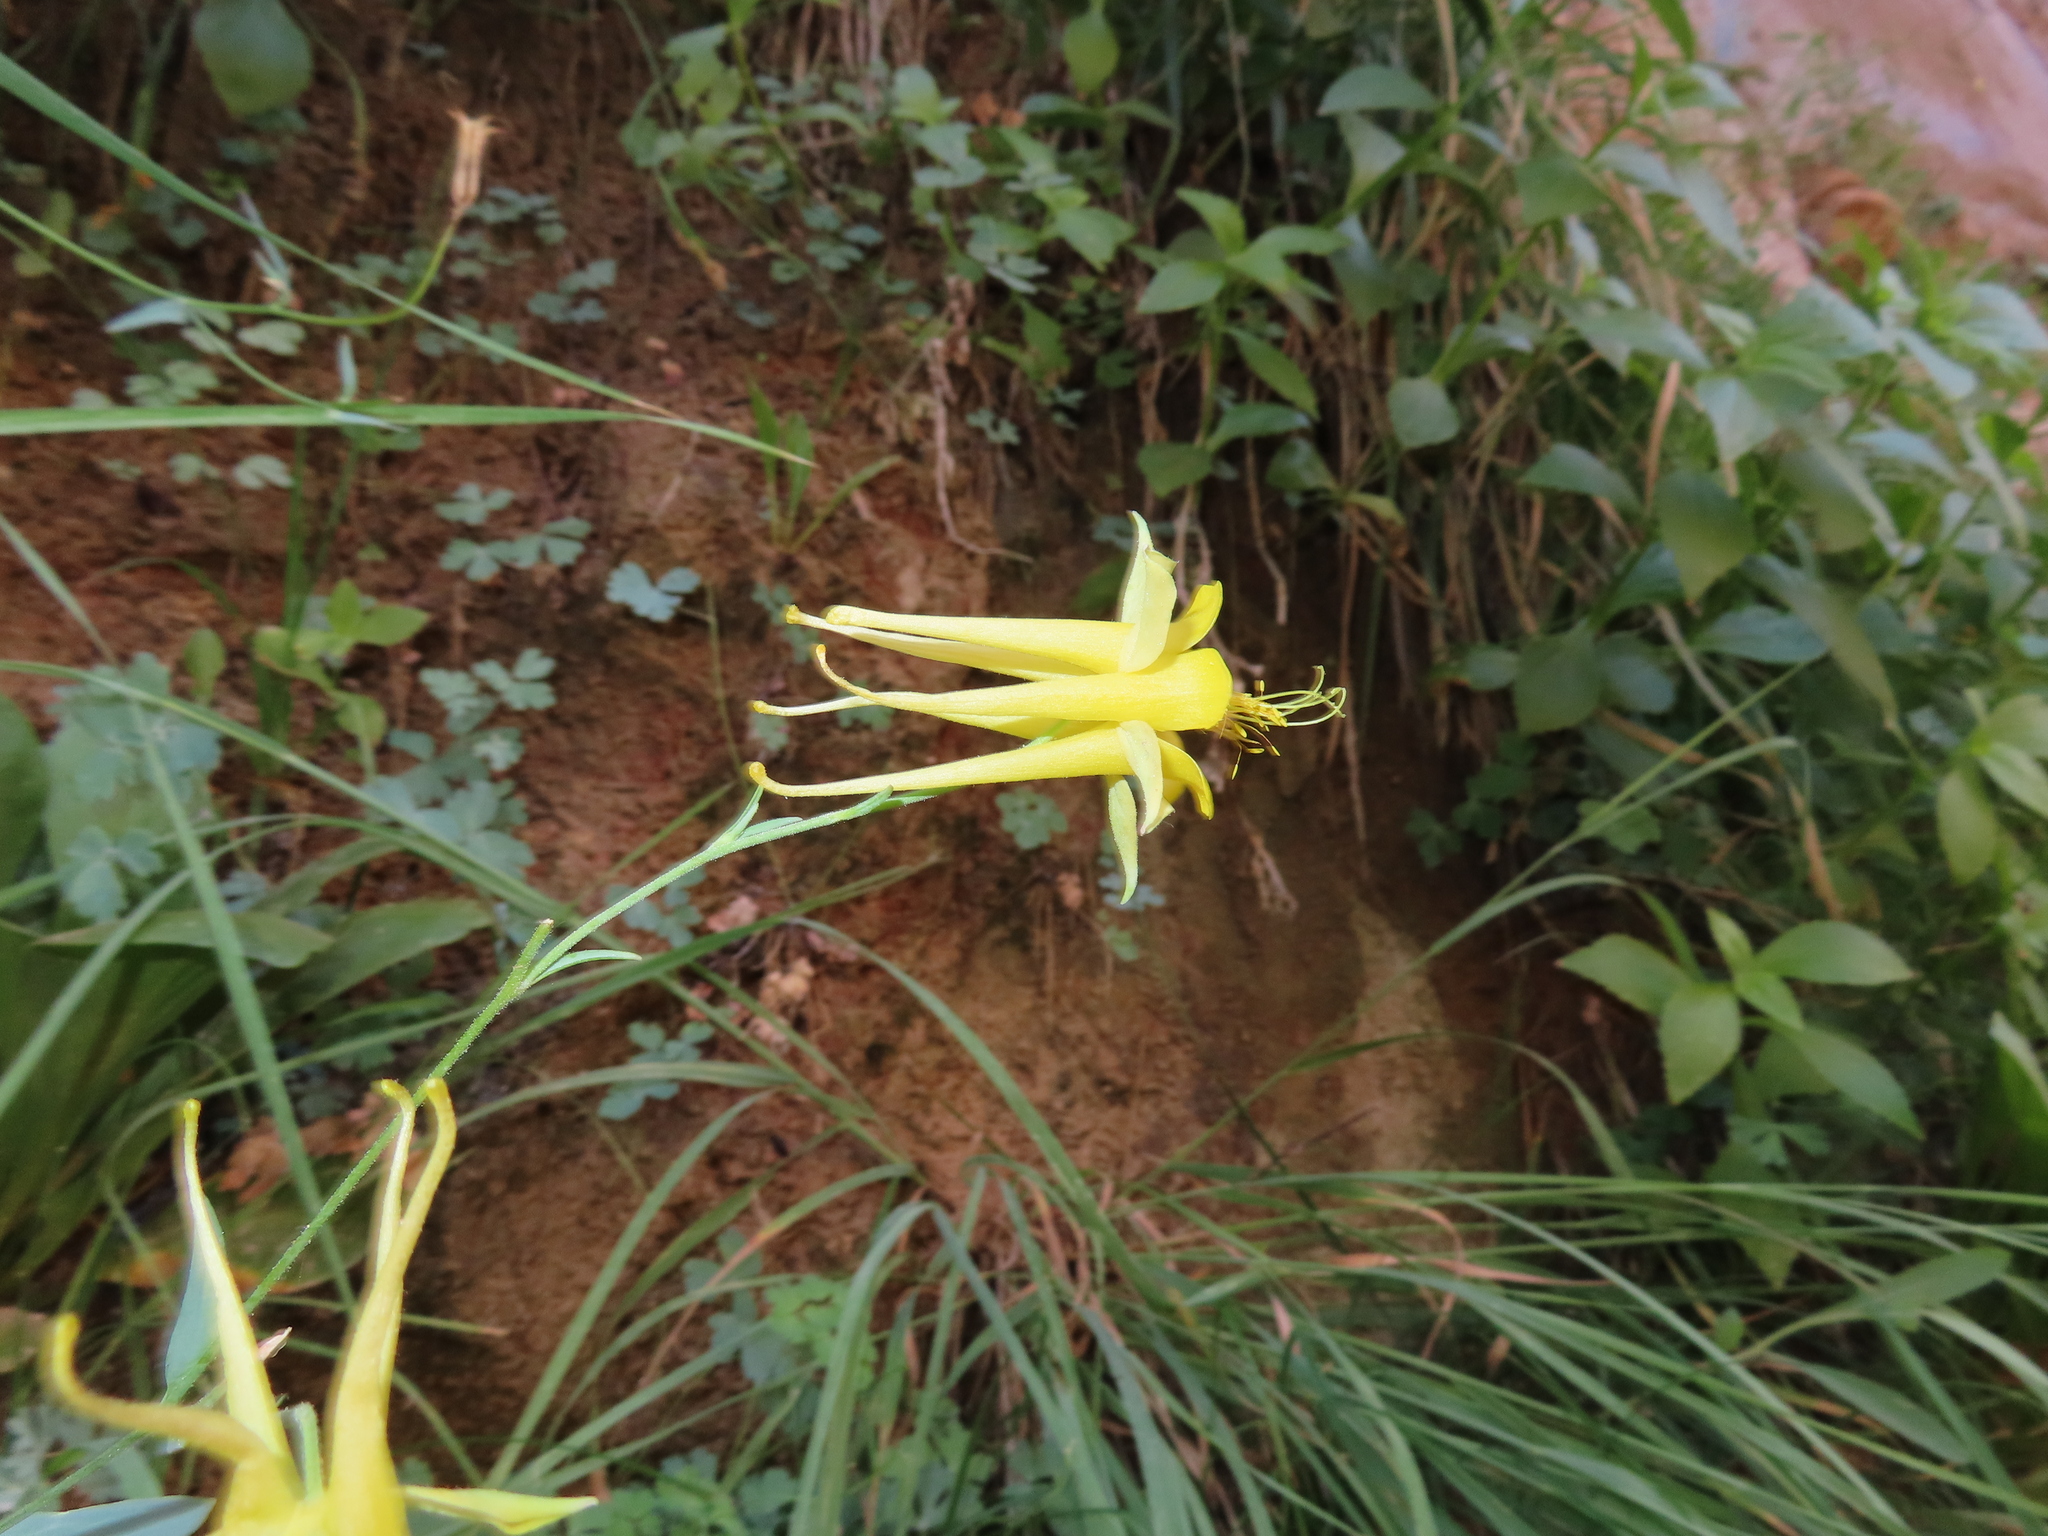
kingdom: Plantae
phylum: Tracheophyta
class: Magnoliopsida
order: Ranunculales
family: Ranunculaceae
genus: Aquilegia
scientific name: Aquilegia chrysantha
